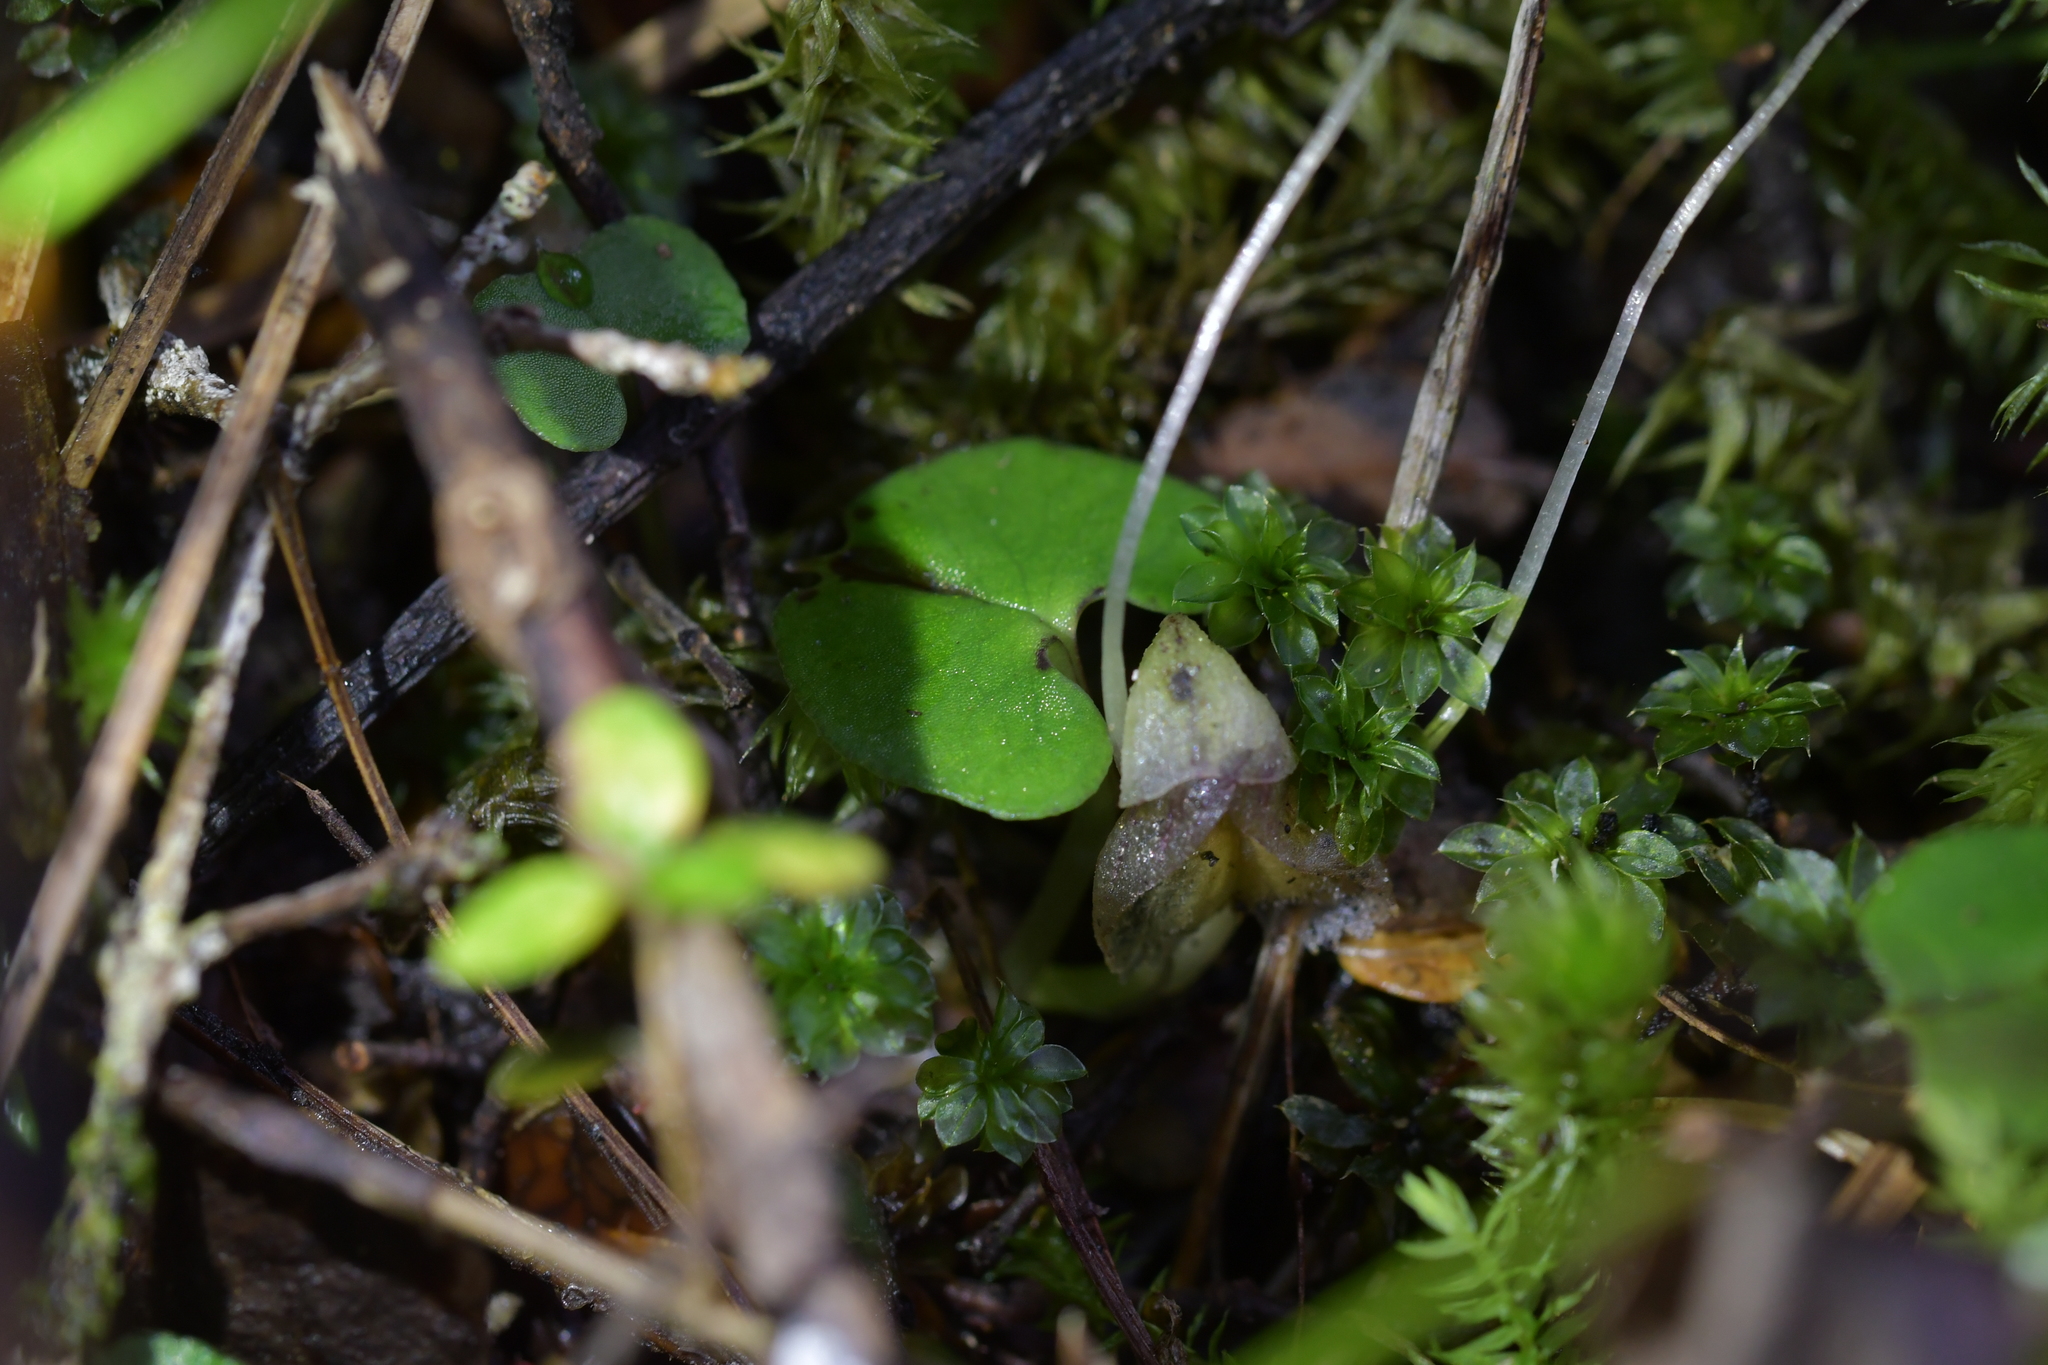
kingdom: Plantae
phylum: Tracheophyta
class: Liliopsida
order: Asparagales
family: Orchidaceae
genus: Corybas
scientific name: Corybas walliae
